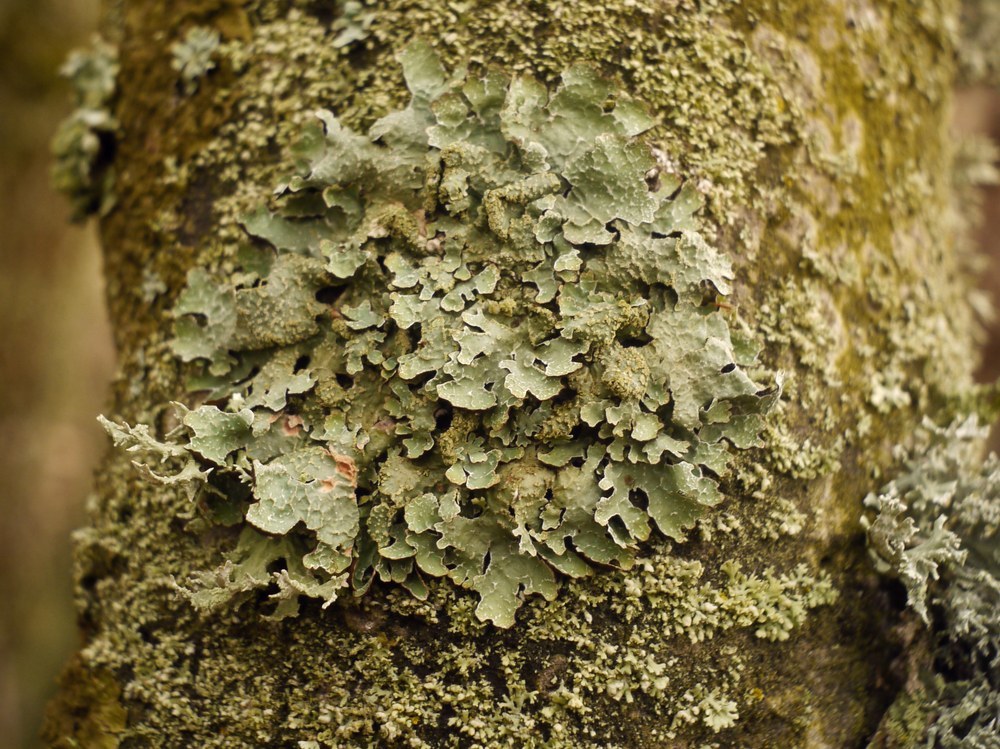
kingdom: Fungi
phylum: Ascomycota
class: Lecanoromycetes
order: Lecanorales
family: Parmeliaceae
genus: Parmelia
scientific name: Parmelia sulcata
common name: Netted shield lichen
